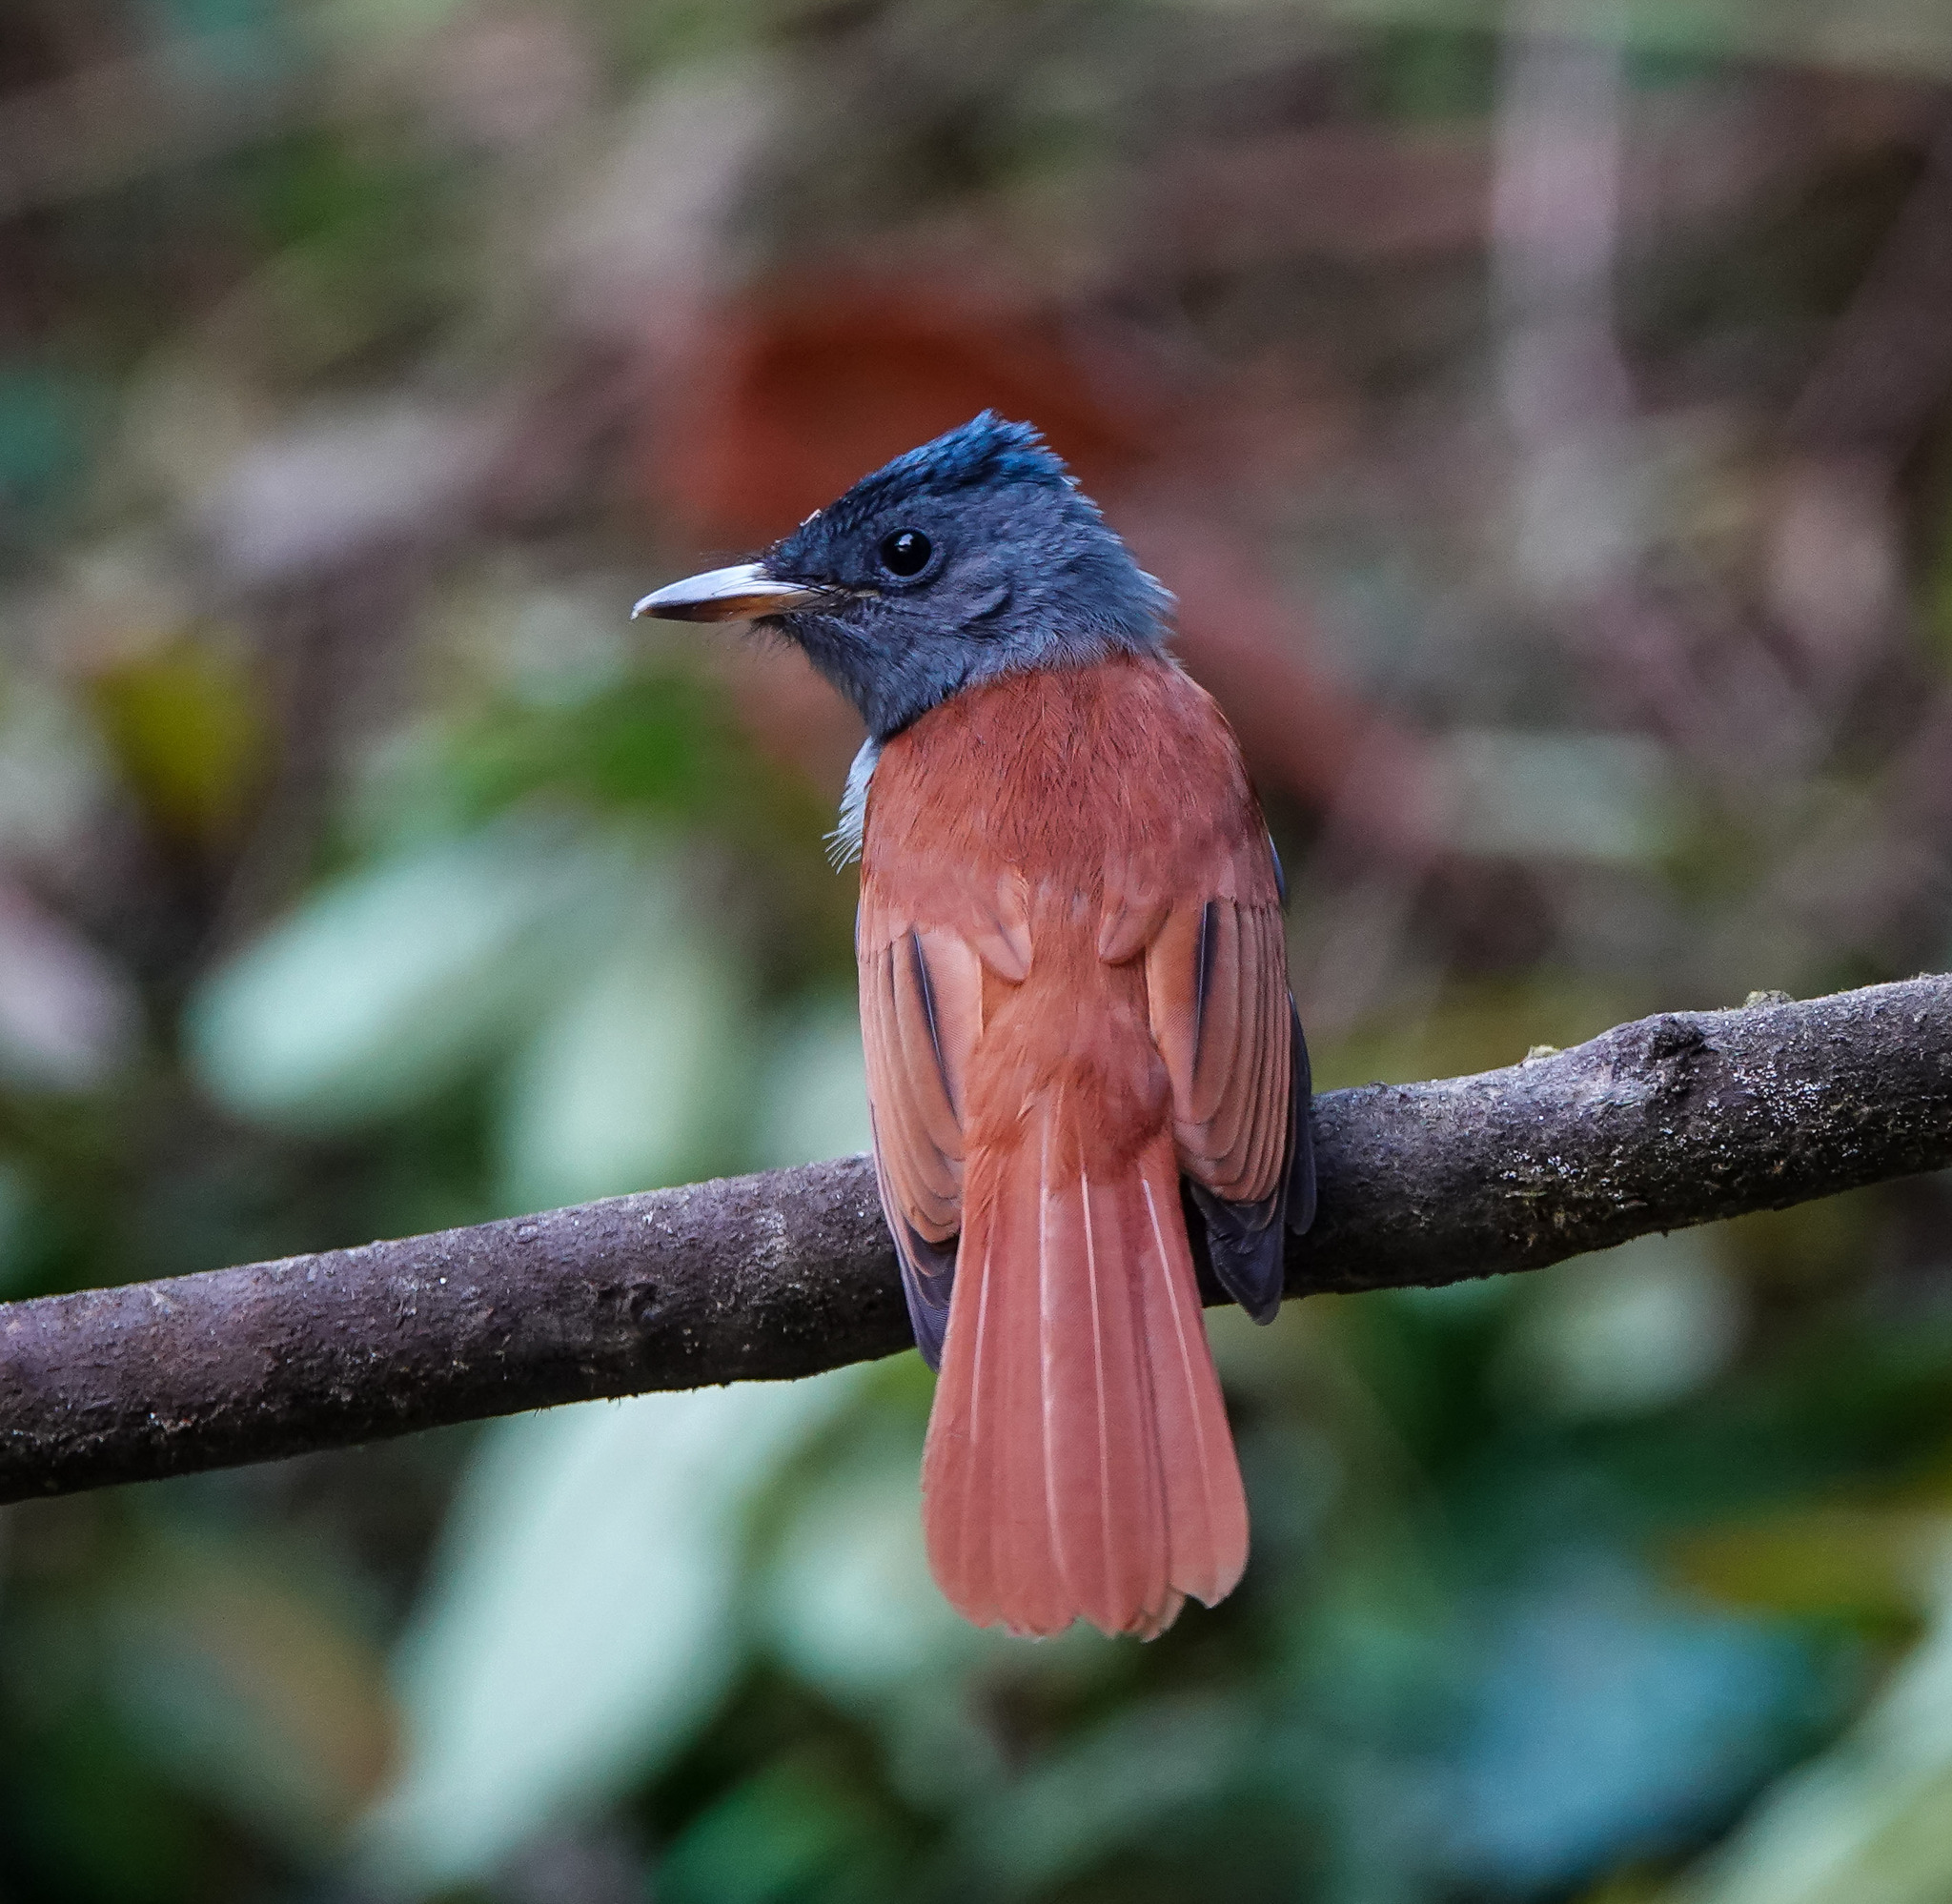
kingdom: Animalia
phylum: Chordata
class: Aves
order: Passeriformes
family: Monarchidae
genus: Terpsiphone
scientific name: Terpsiphone paradisi
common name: Indian paradise flycatcher
